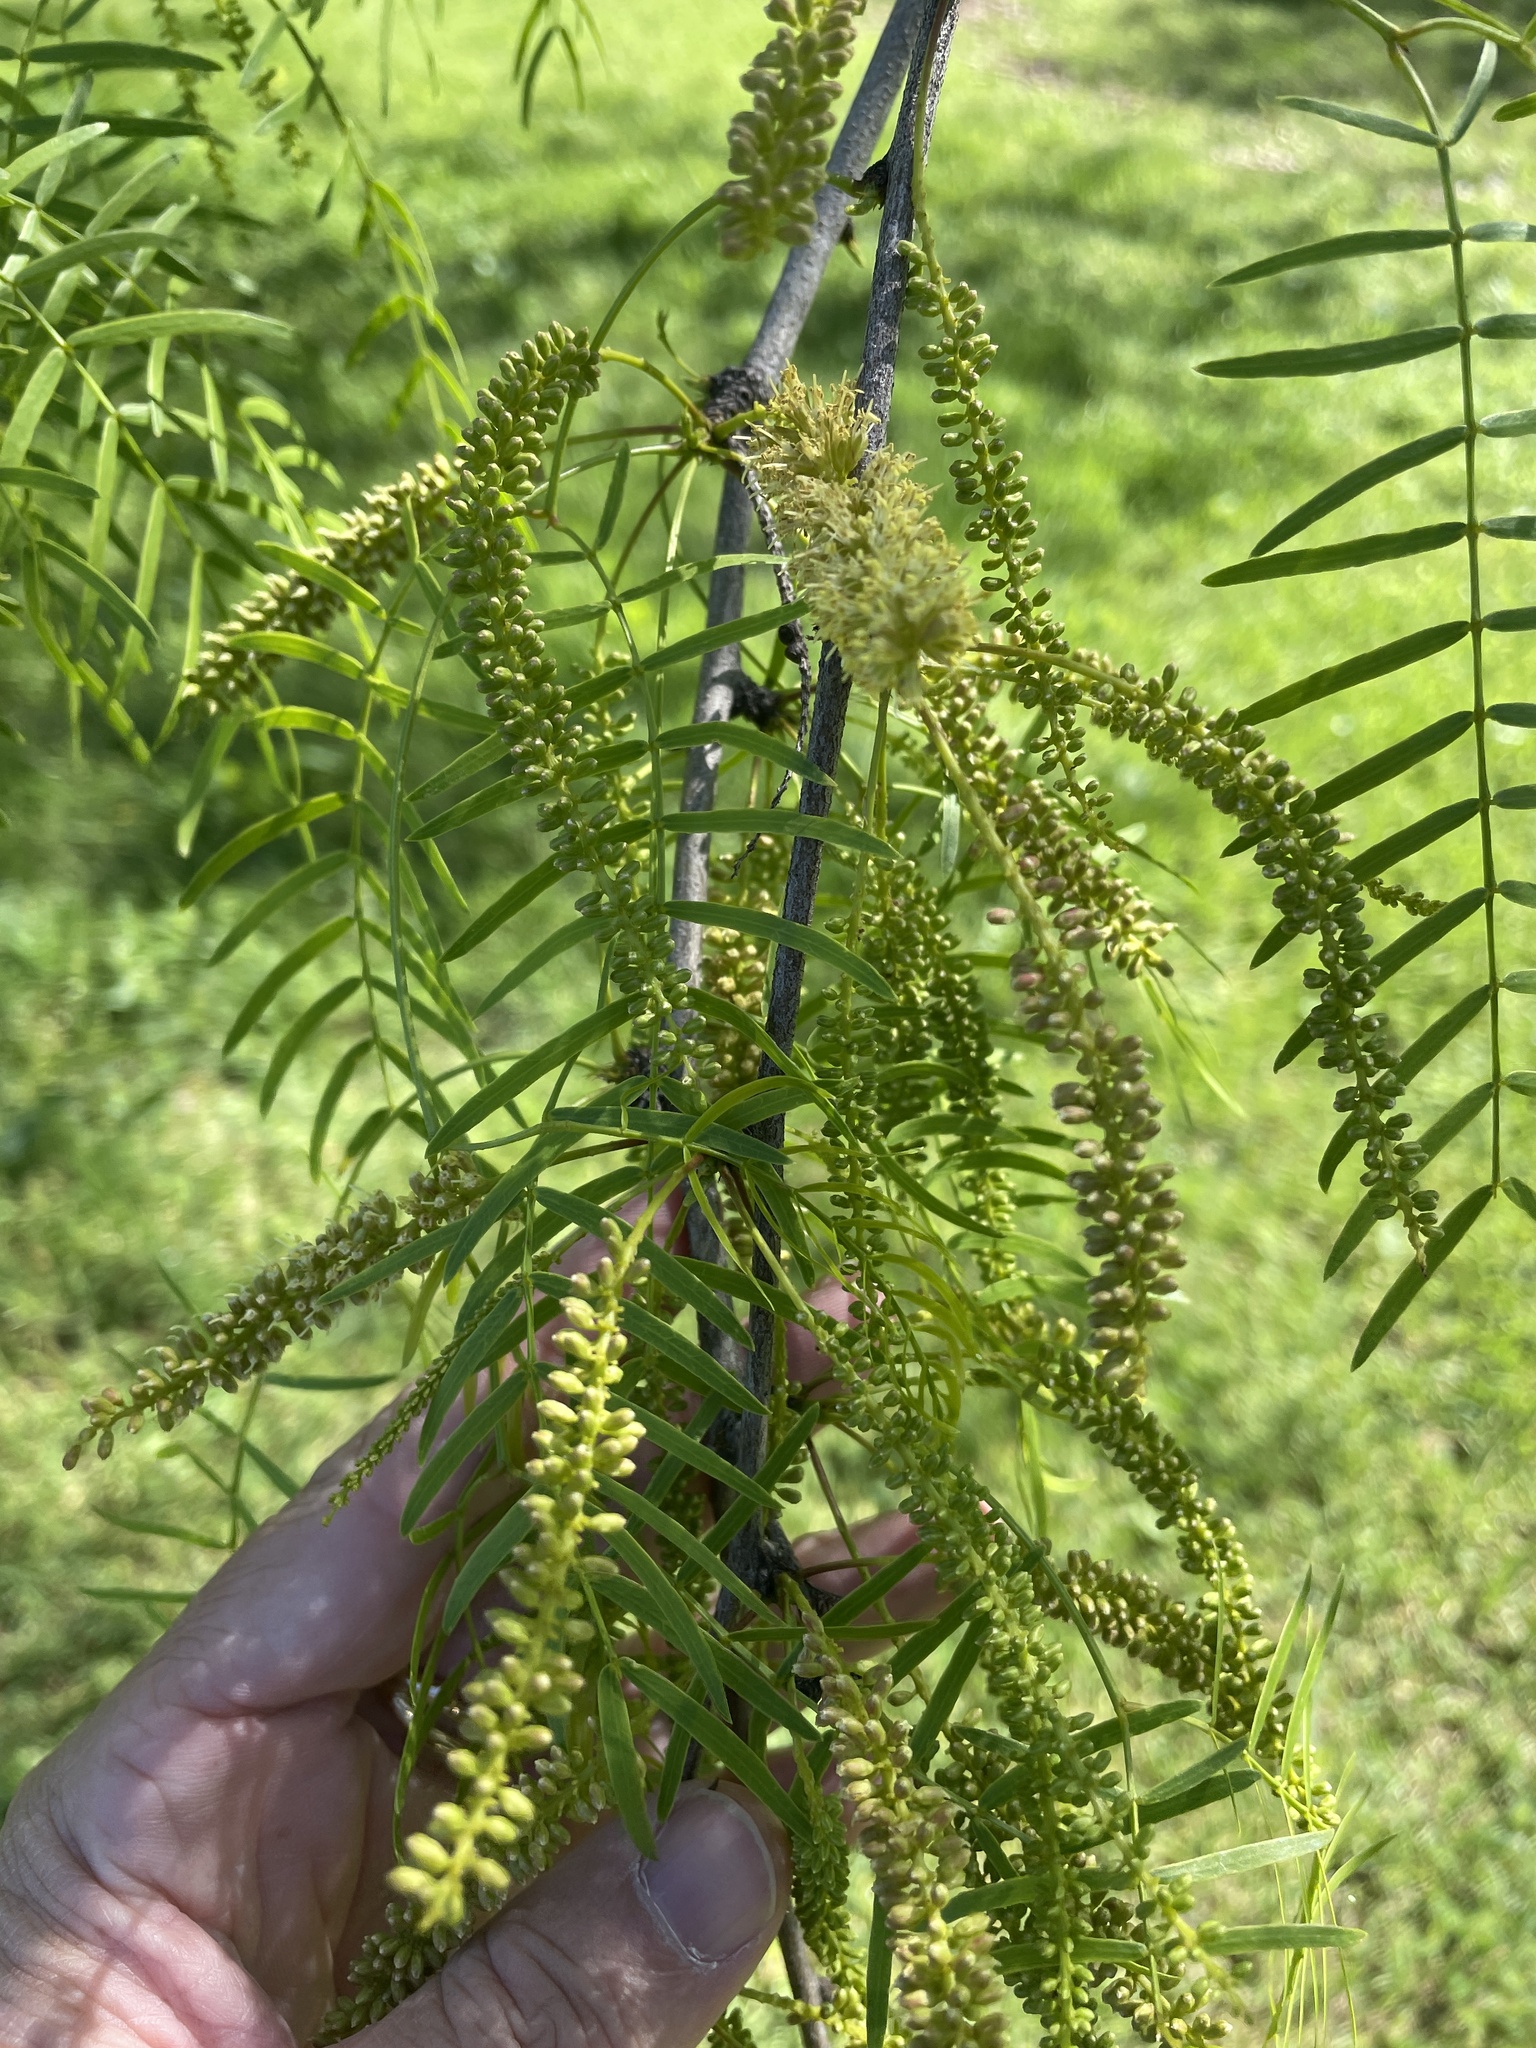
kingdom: Plantae
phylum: Tracheophyta
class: Magnoliopsida
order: Fabales
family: Fabaceae
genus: Prosopis
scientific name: Prosopis glandulosa
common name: Honey mesquite
